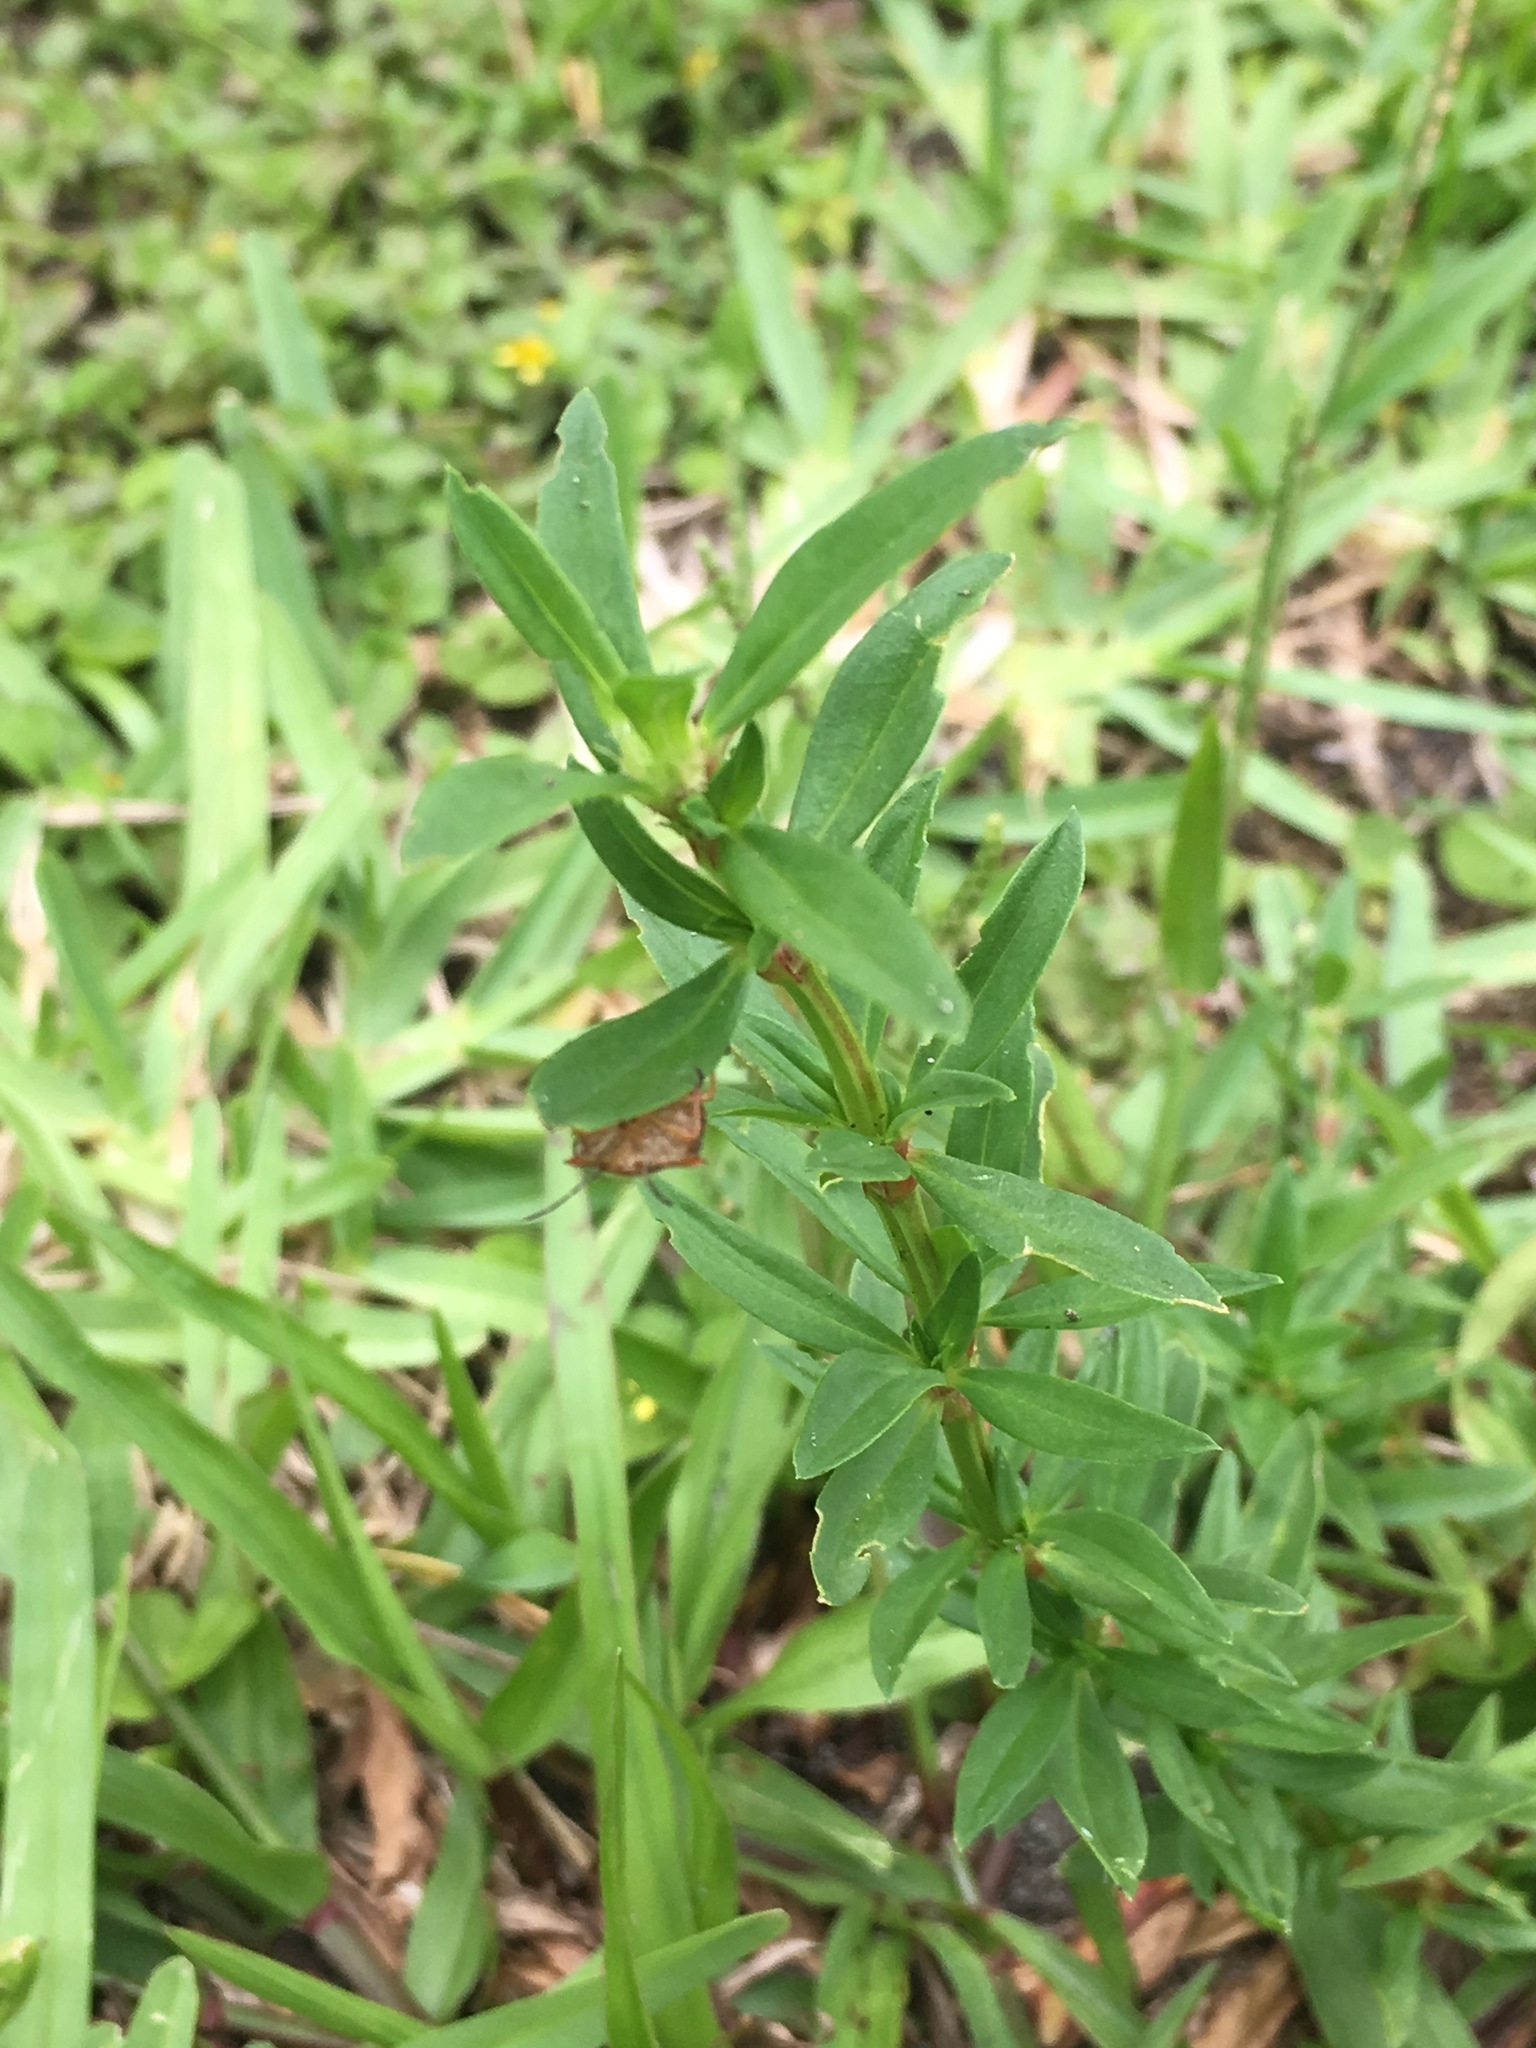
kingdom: Animalia
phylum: Arthropoda
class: Insecta
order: Hemiptera
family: Pentatomidae
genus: Thyanta
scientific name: Thyanta perditor
